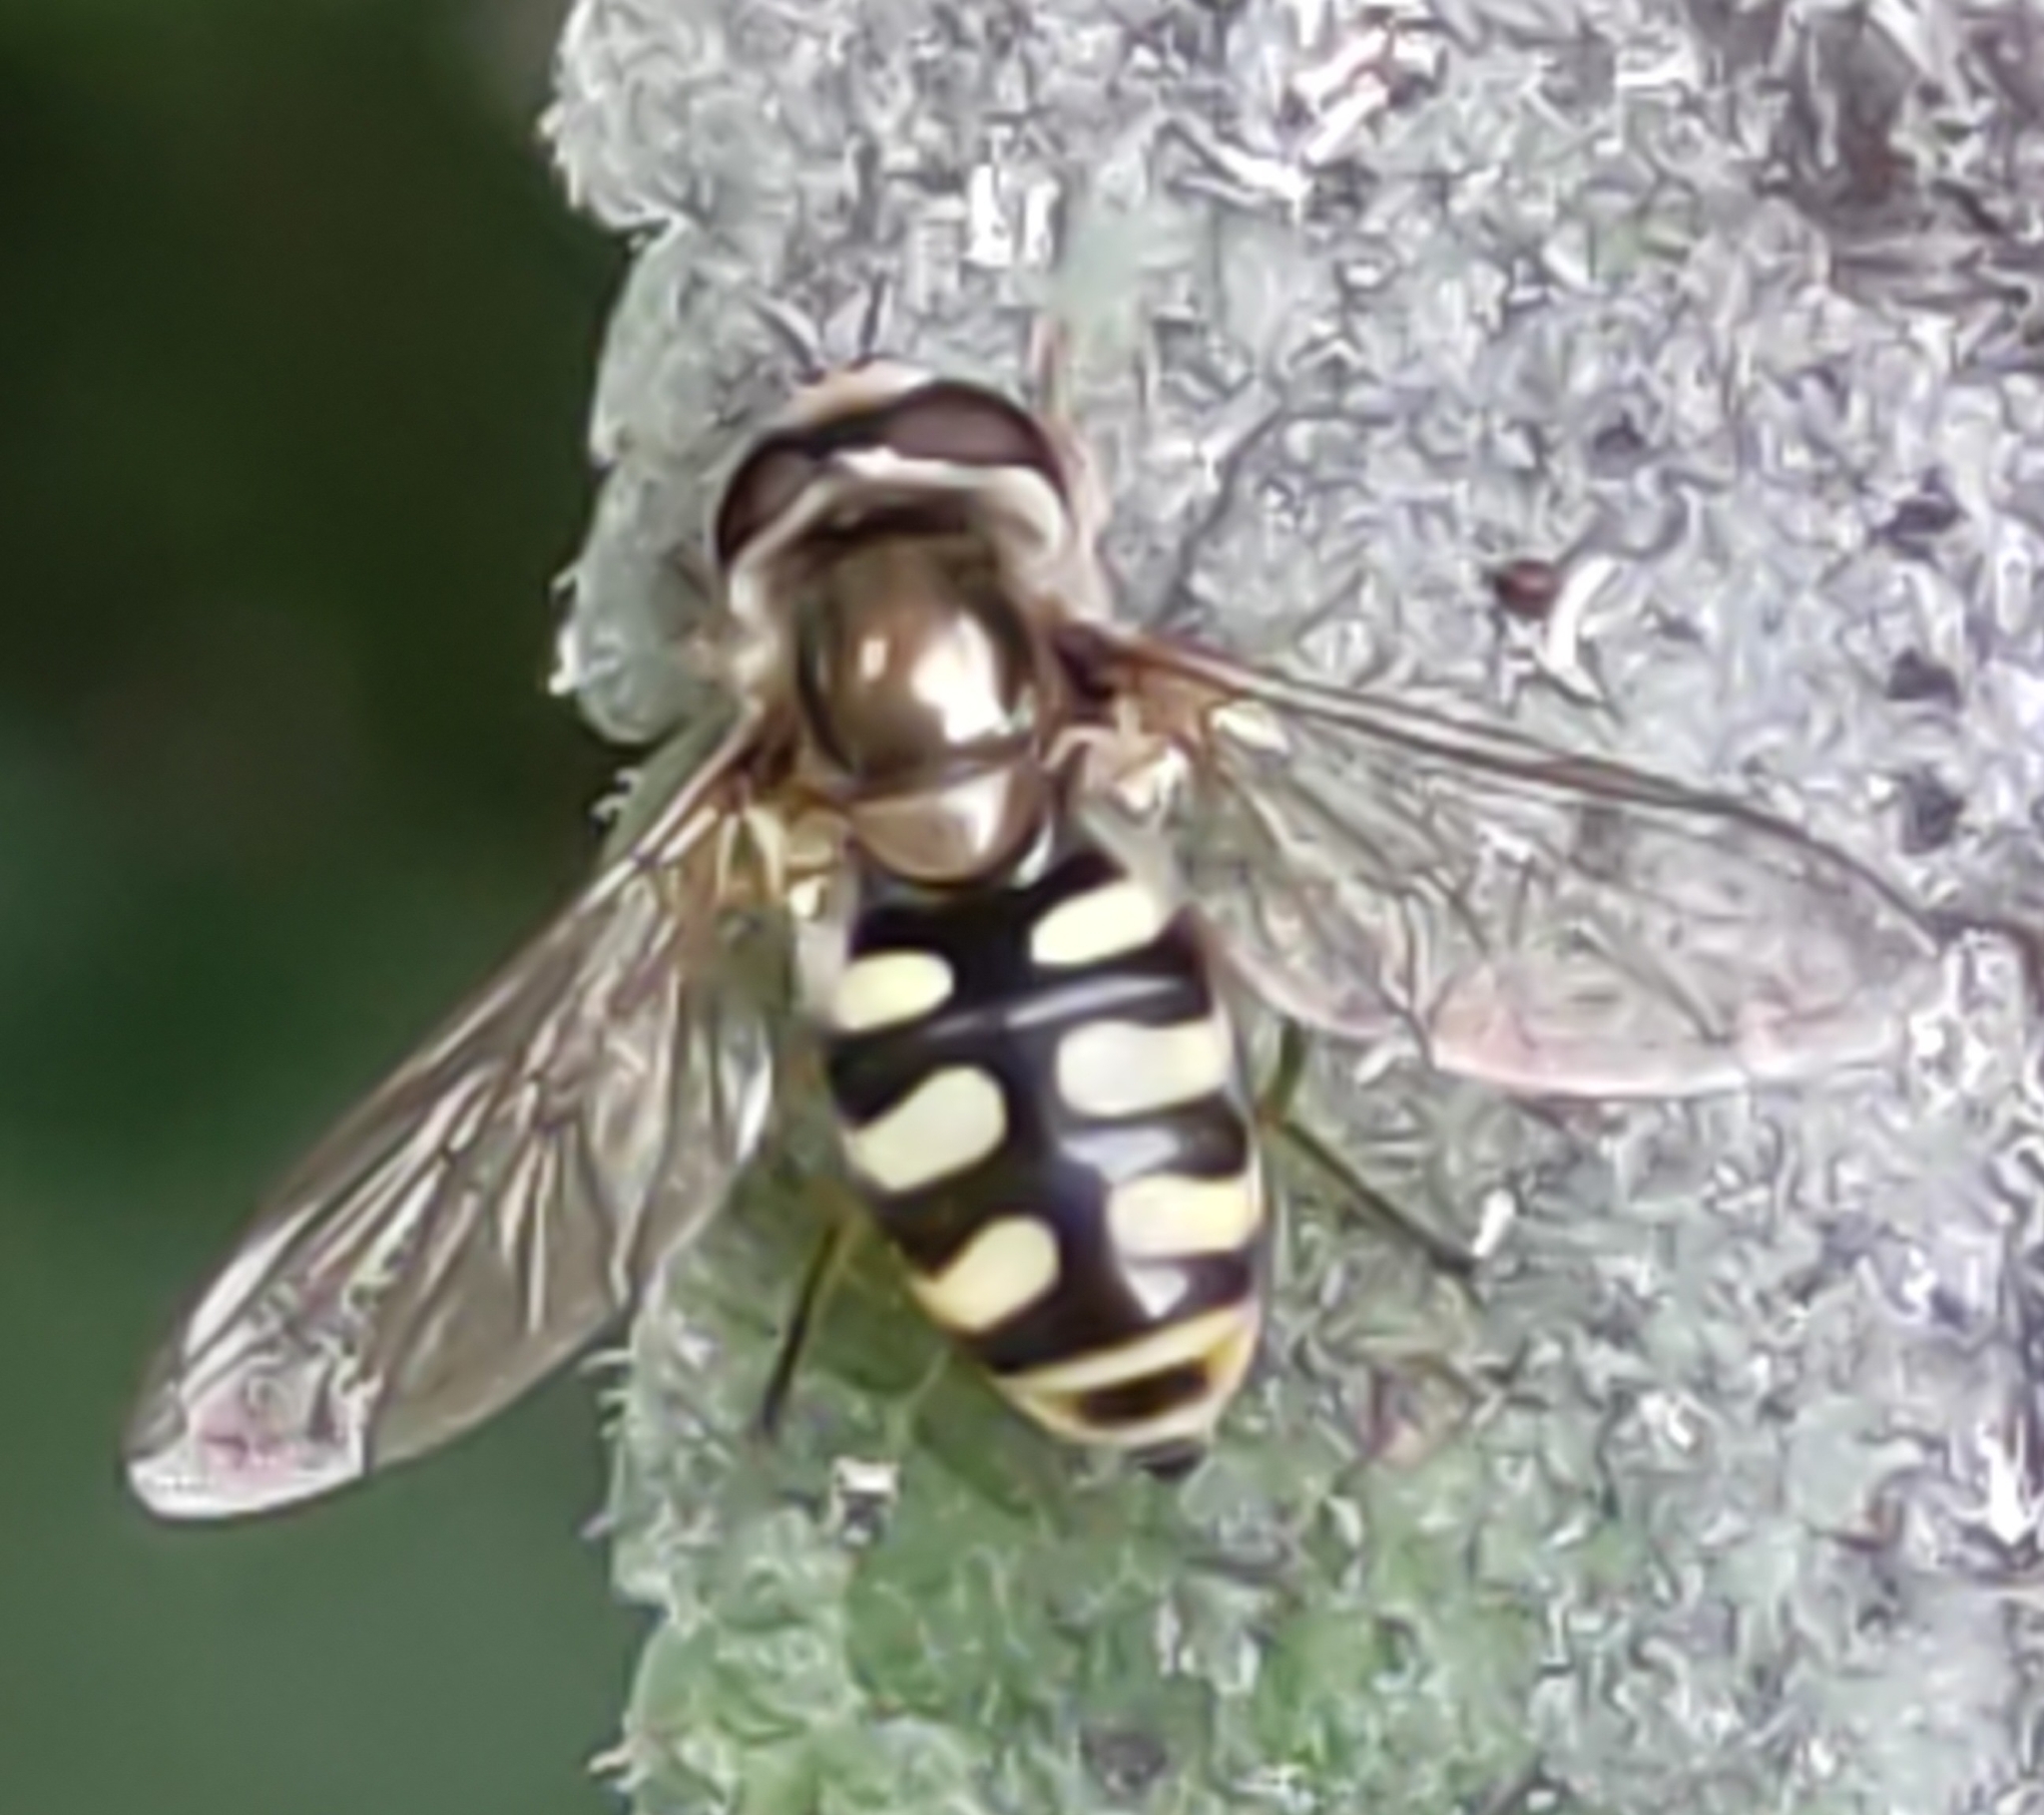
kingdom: Animalia
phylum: Arthropoda
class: Insecta
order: Diptera
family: Syrphidae
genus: Eupeodes
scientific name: Eupeodes corollae
